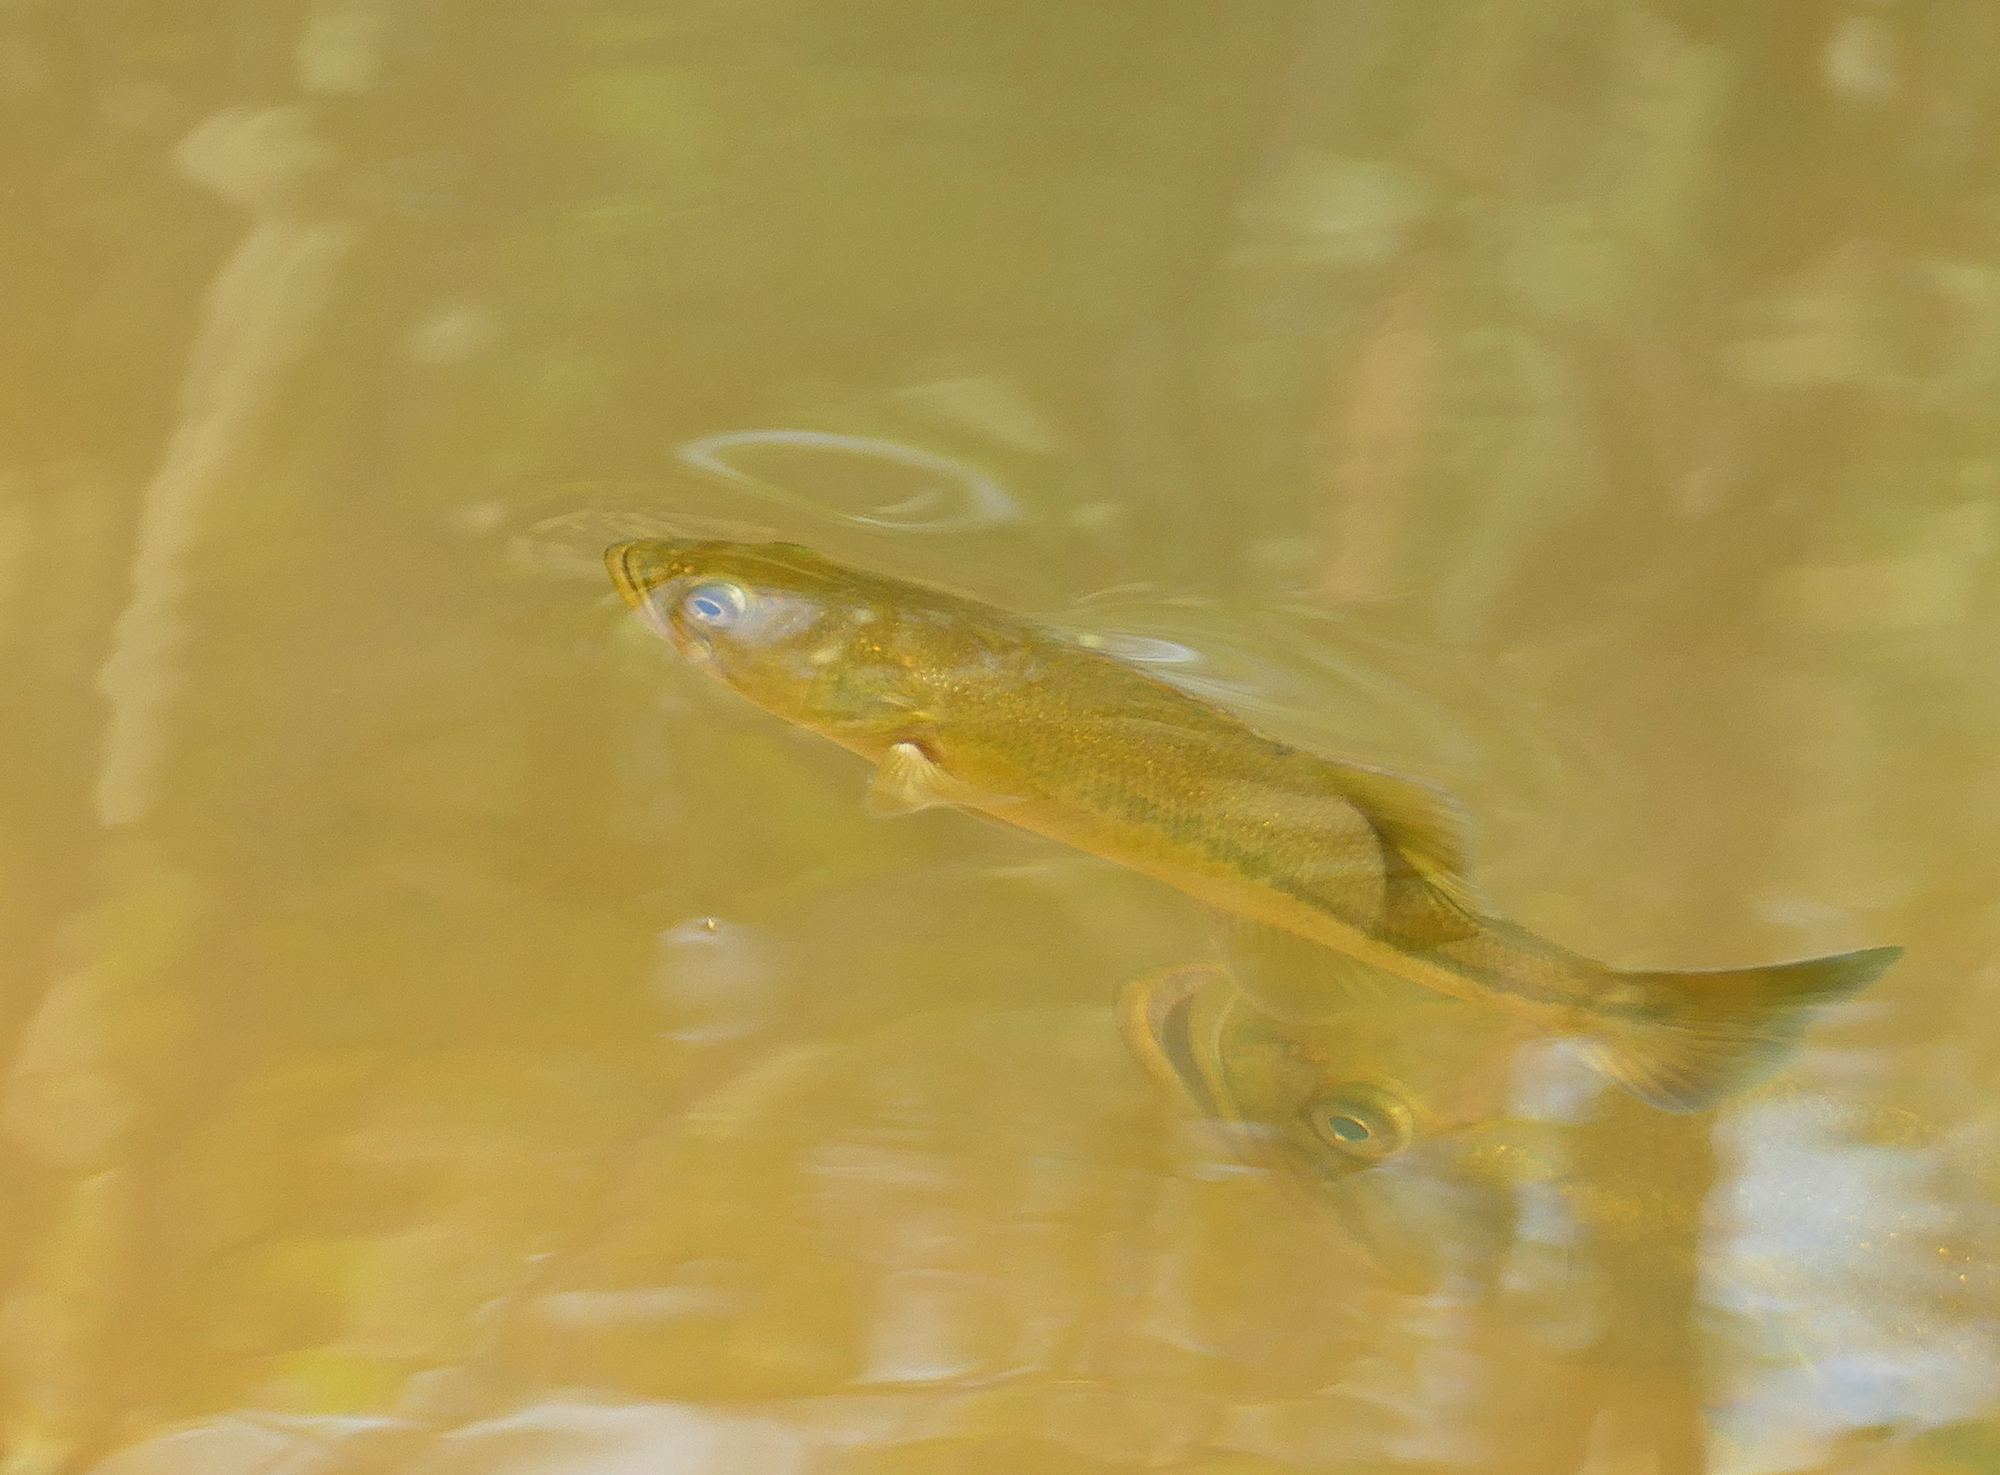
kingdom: Animalia
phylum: Chordata
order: Perciformes
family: Centrarchidae
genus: Micropterus
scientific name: Micropterus
